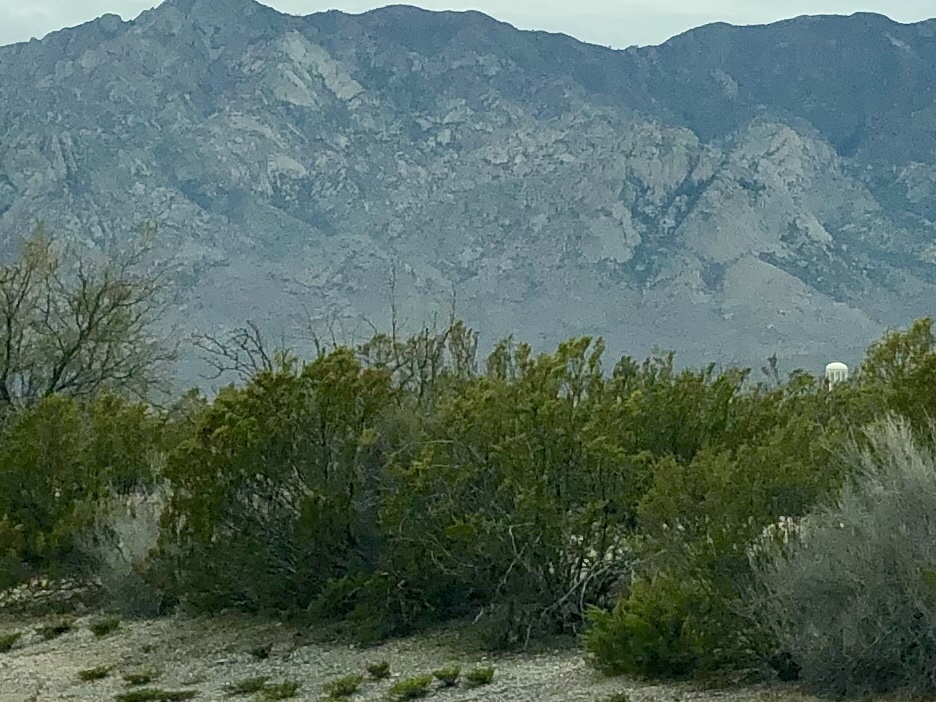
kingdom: Plantae
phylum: Tracheophyta
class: Magnoliopsida
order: Zygophyllales
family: Zygophyllaceae
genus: Larrea
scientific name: Larrea tridentata
